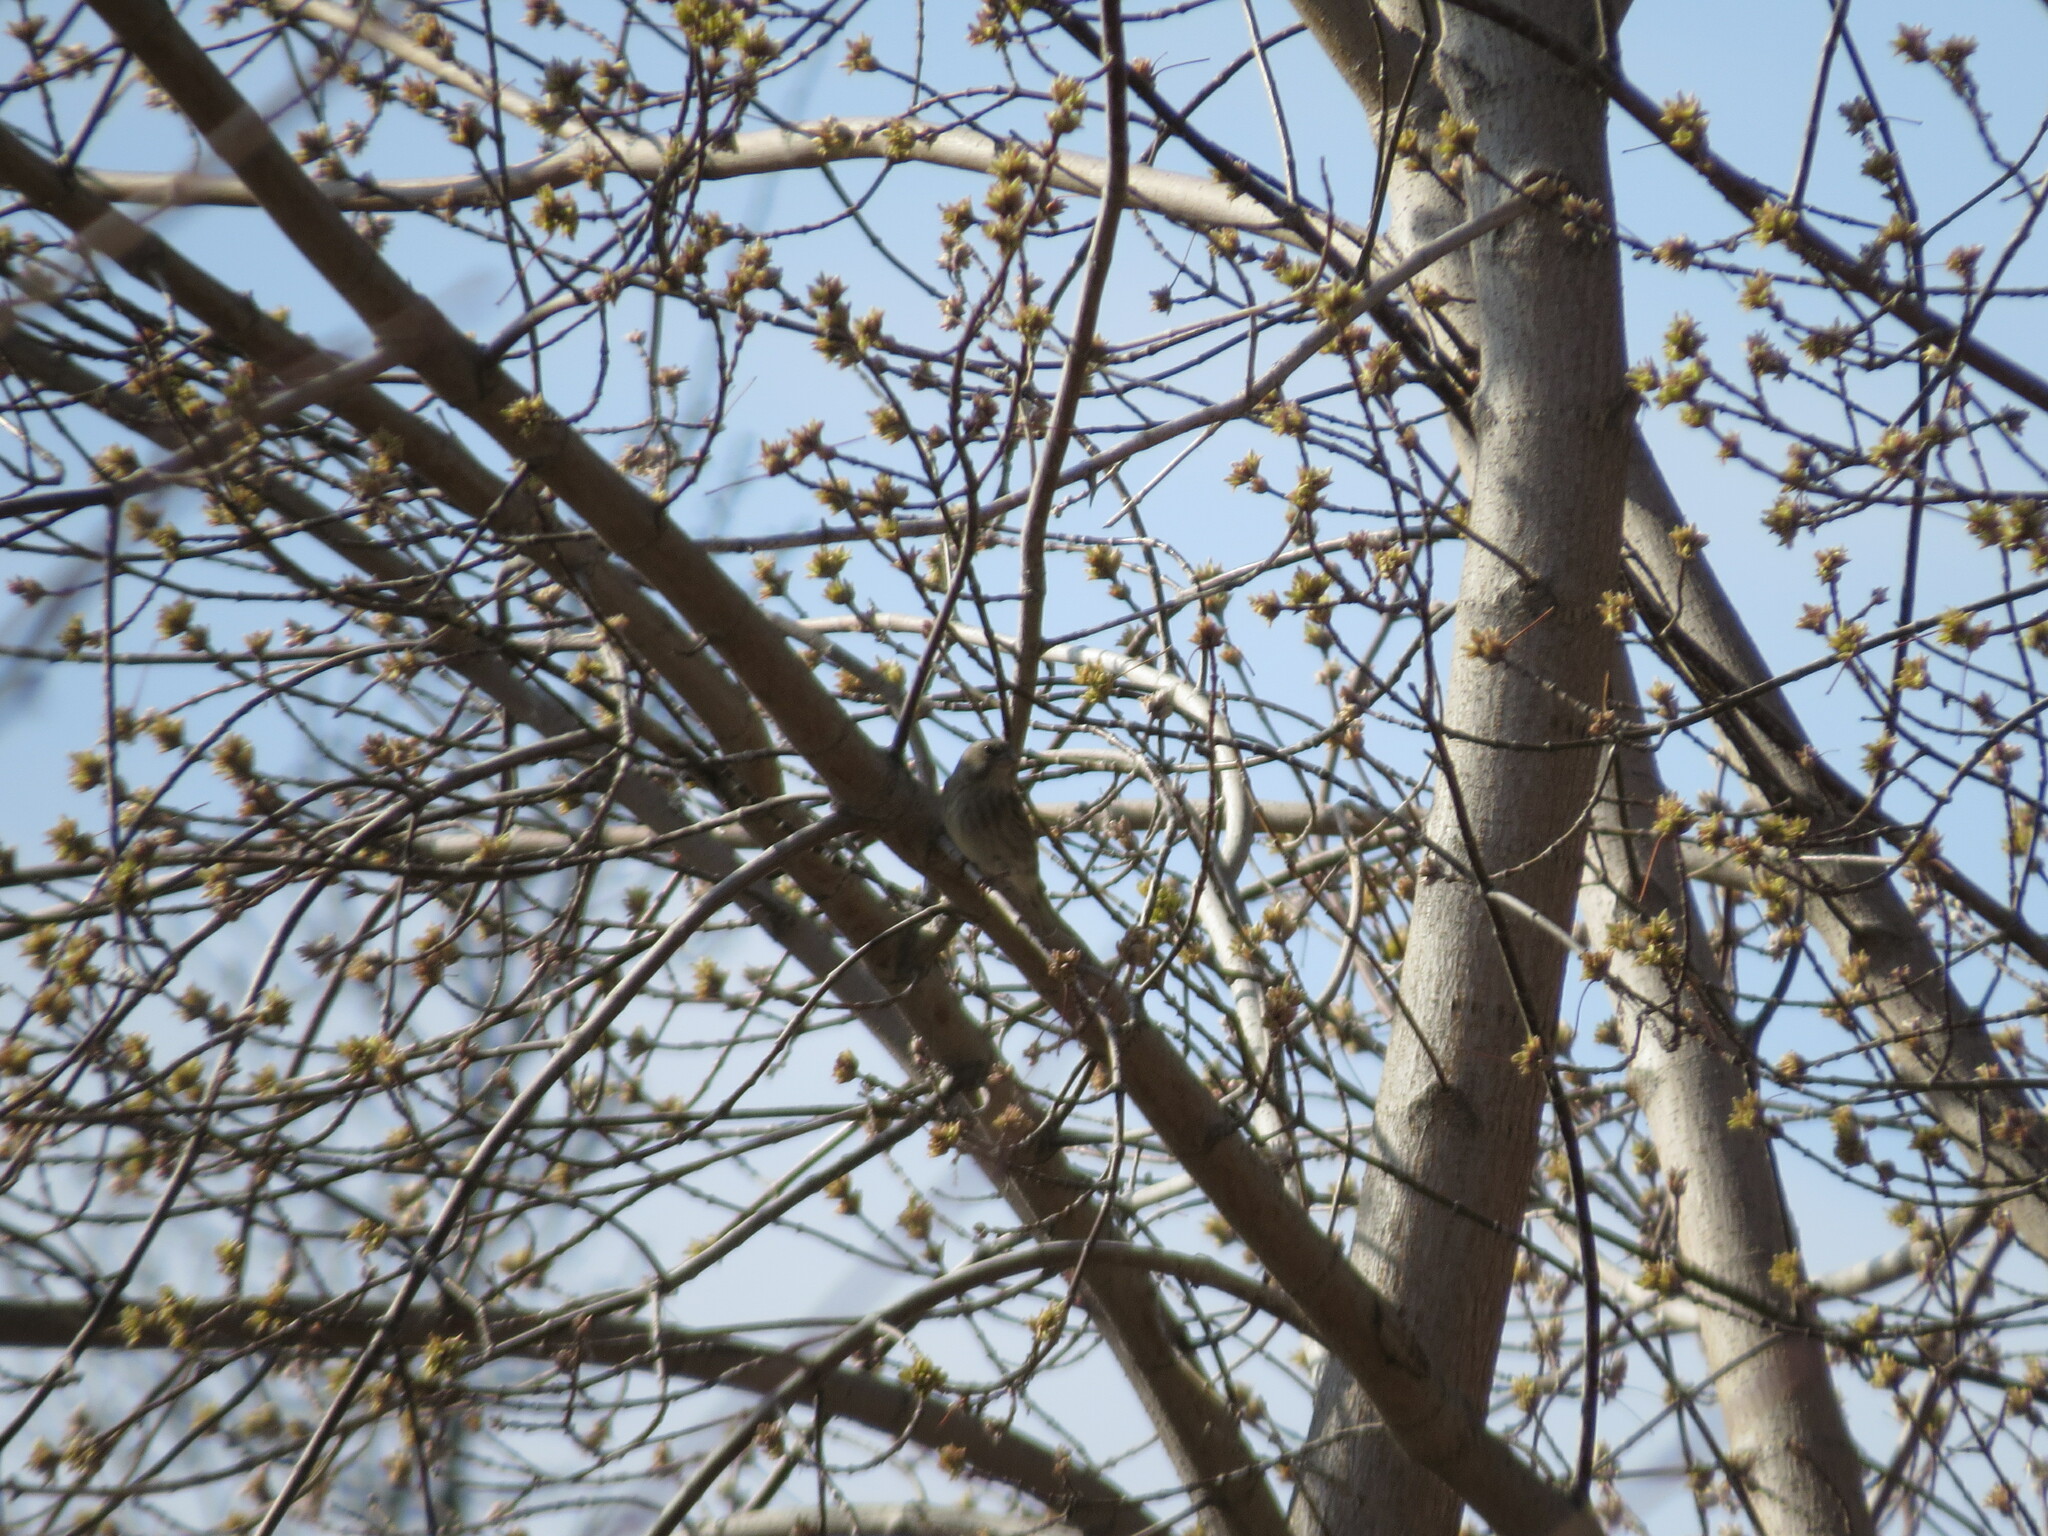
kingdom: Plantae
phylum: Tracheophyta
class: Liliopsida
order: Poales
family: Poaceae
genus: Chloris
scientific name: Chloris chloris
